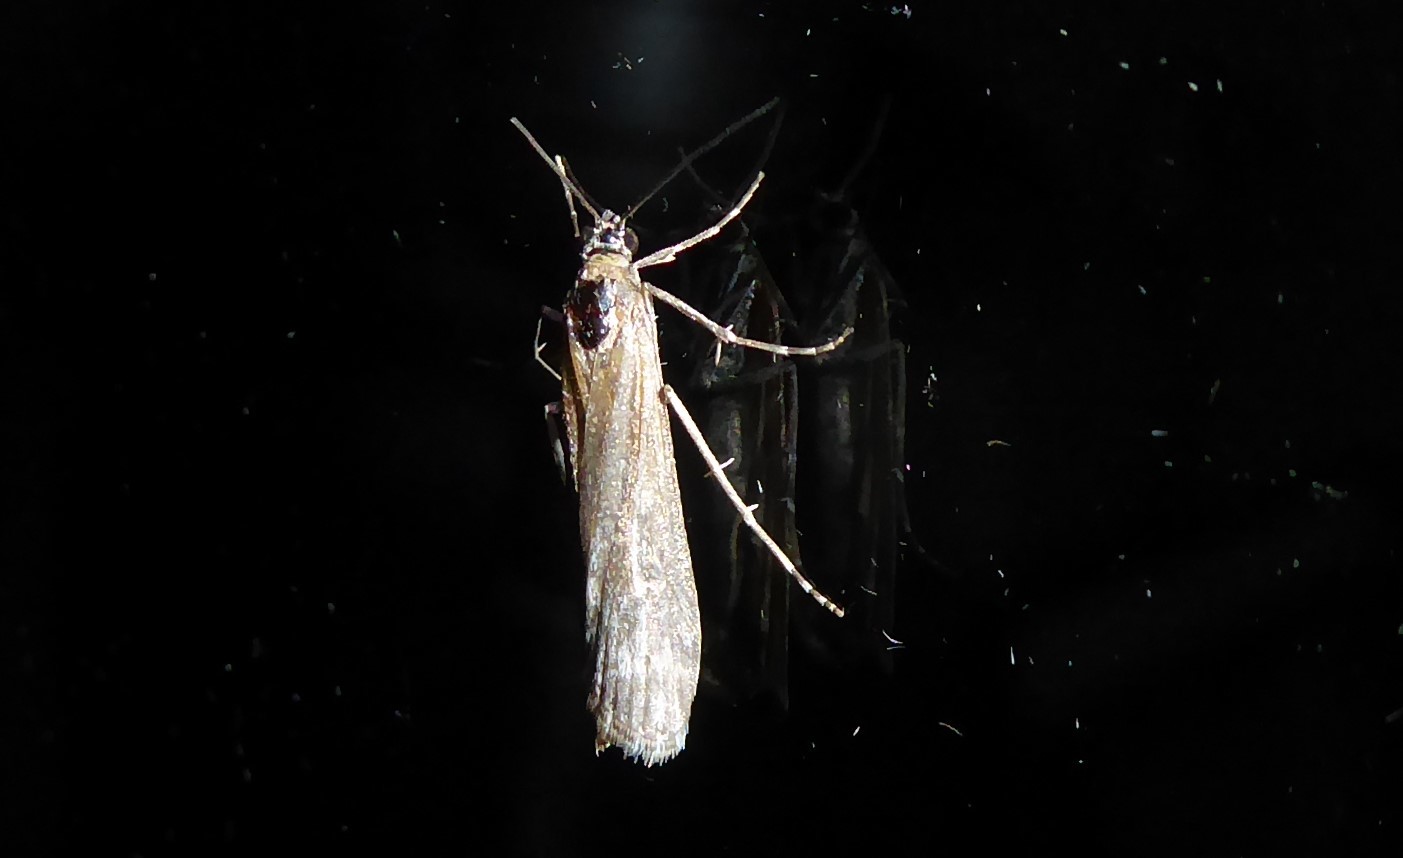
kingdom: Animalia
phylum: Arthropoda
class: Insecta
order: Lepidoptera
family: Crambidae
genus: Eudonia
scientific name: Eudonia leptalea
